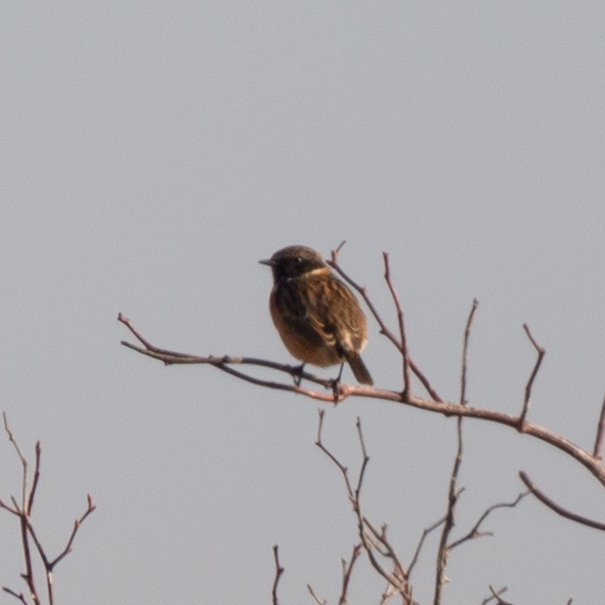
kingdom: Animalia
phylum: Chordata
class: Aves
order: Passeriformes
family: Muscicapidae
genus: Saxicola
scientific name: Saxicola rubicola
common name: European stonechat
